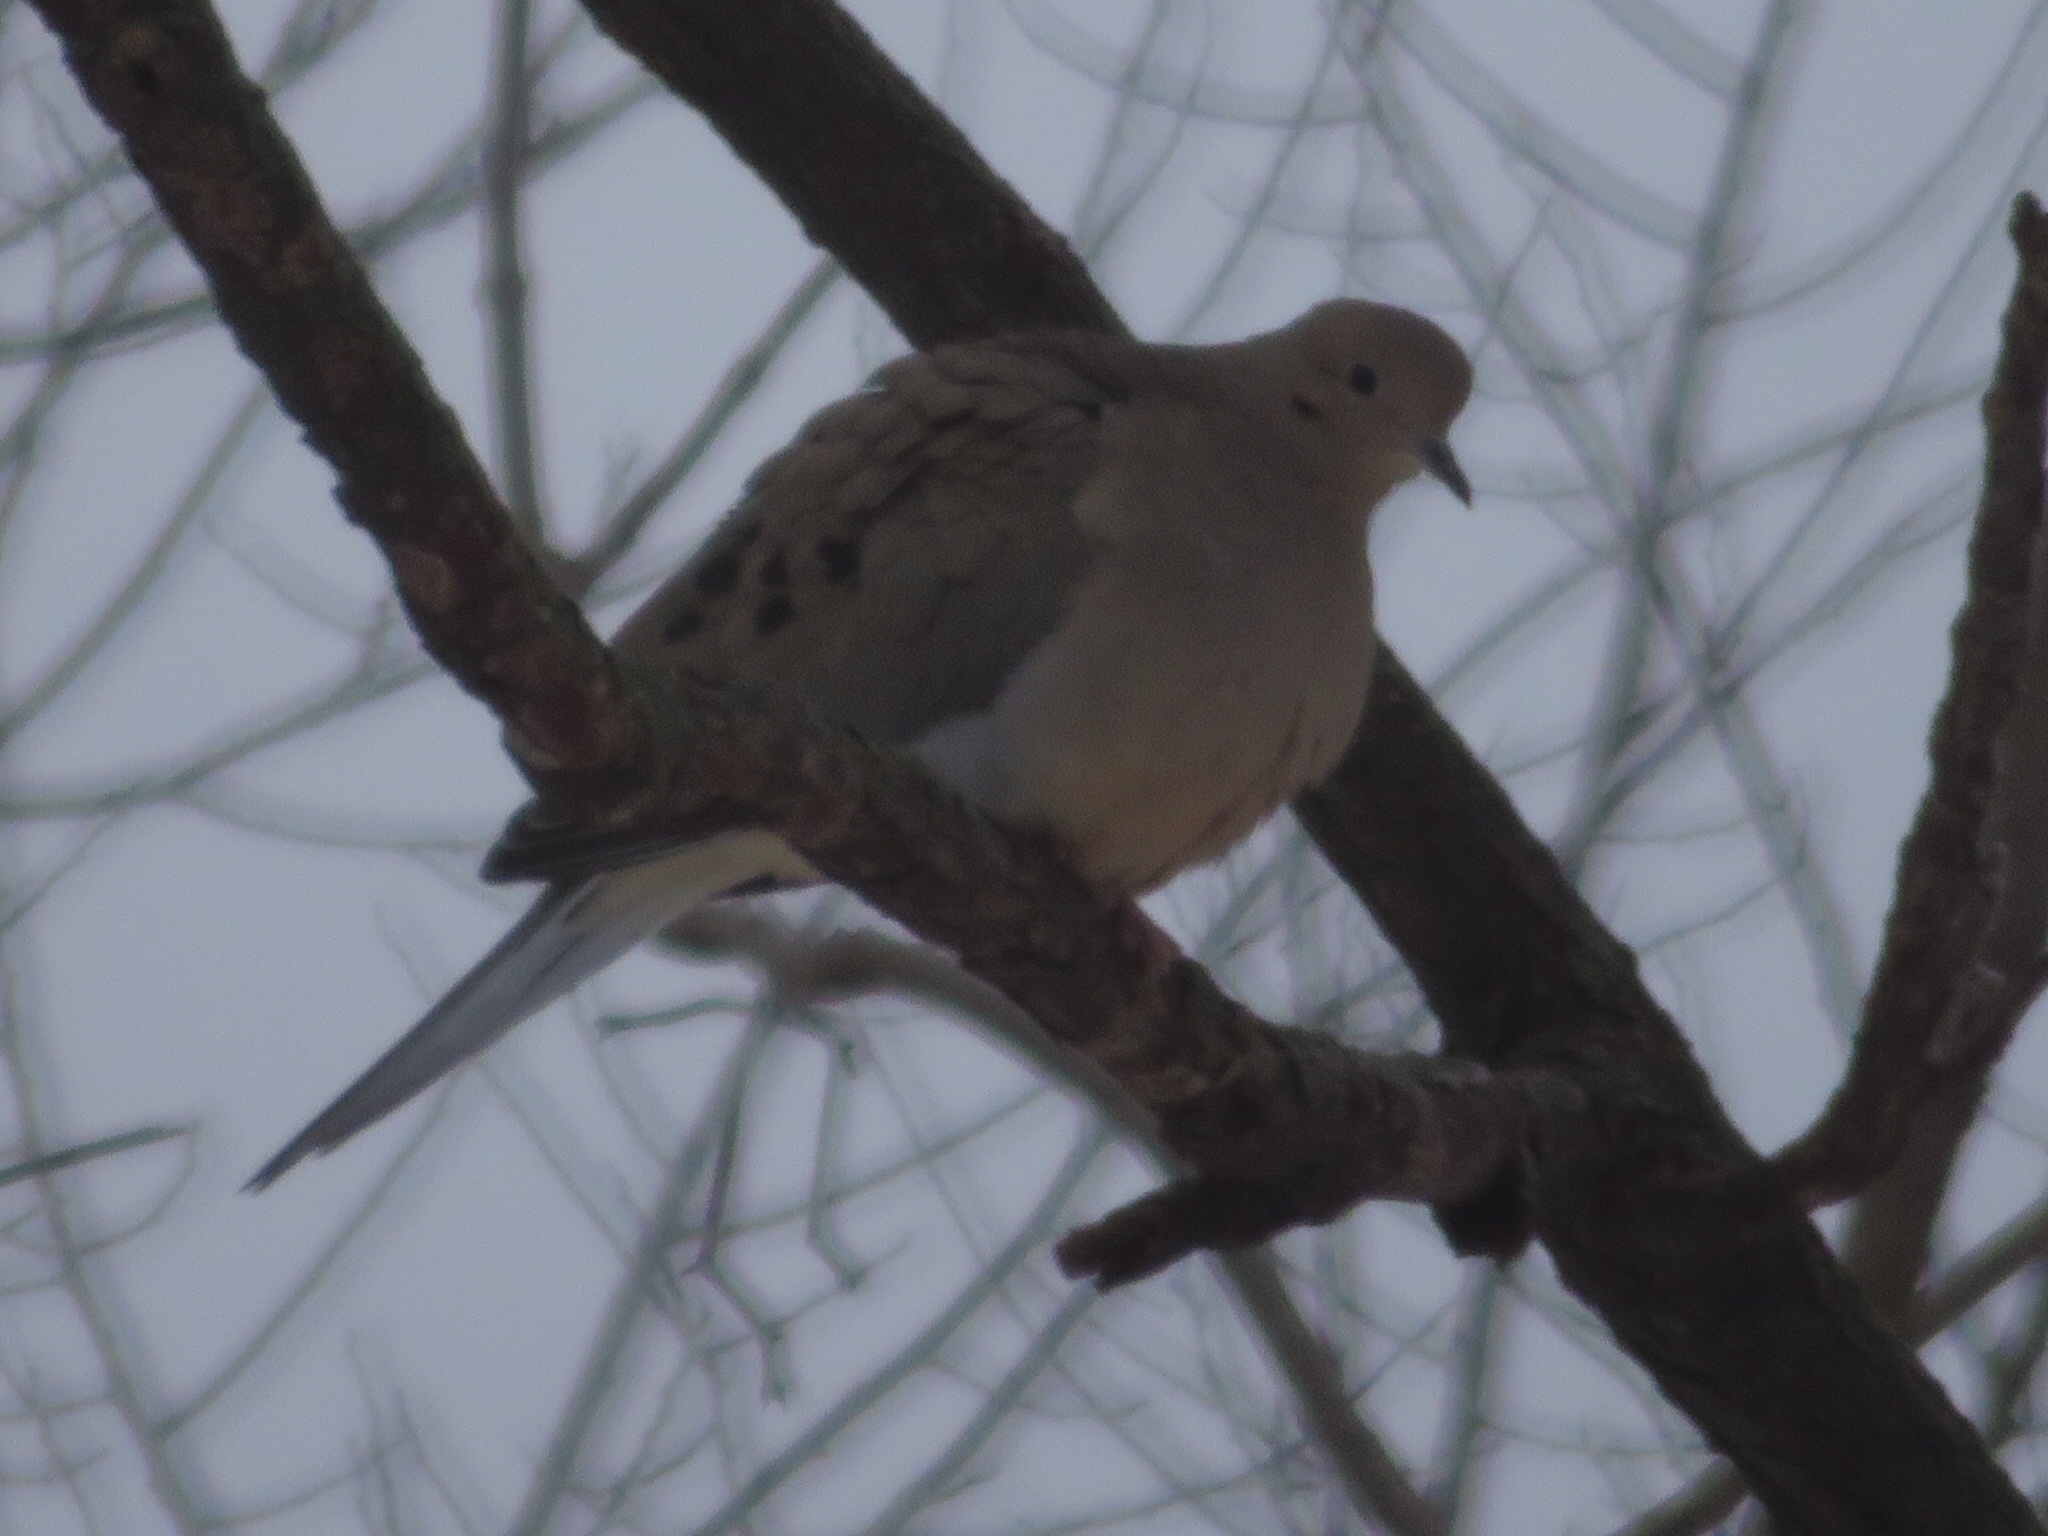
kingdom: Animalia
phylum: Chordata
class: Aves
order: Columbiformes
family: Columbidae
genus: Zenaida
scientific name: Zenaida macroura
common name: Mourning dove
